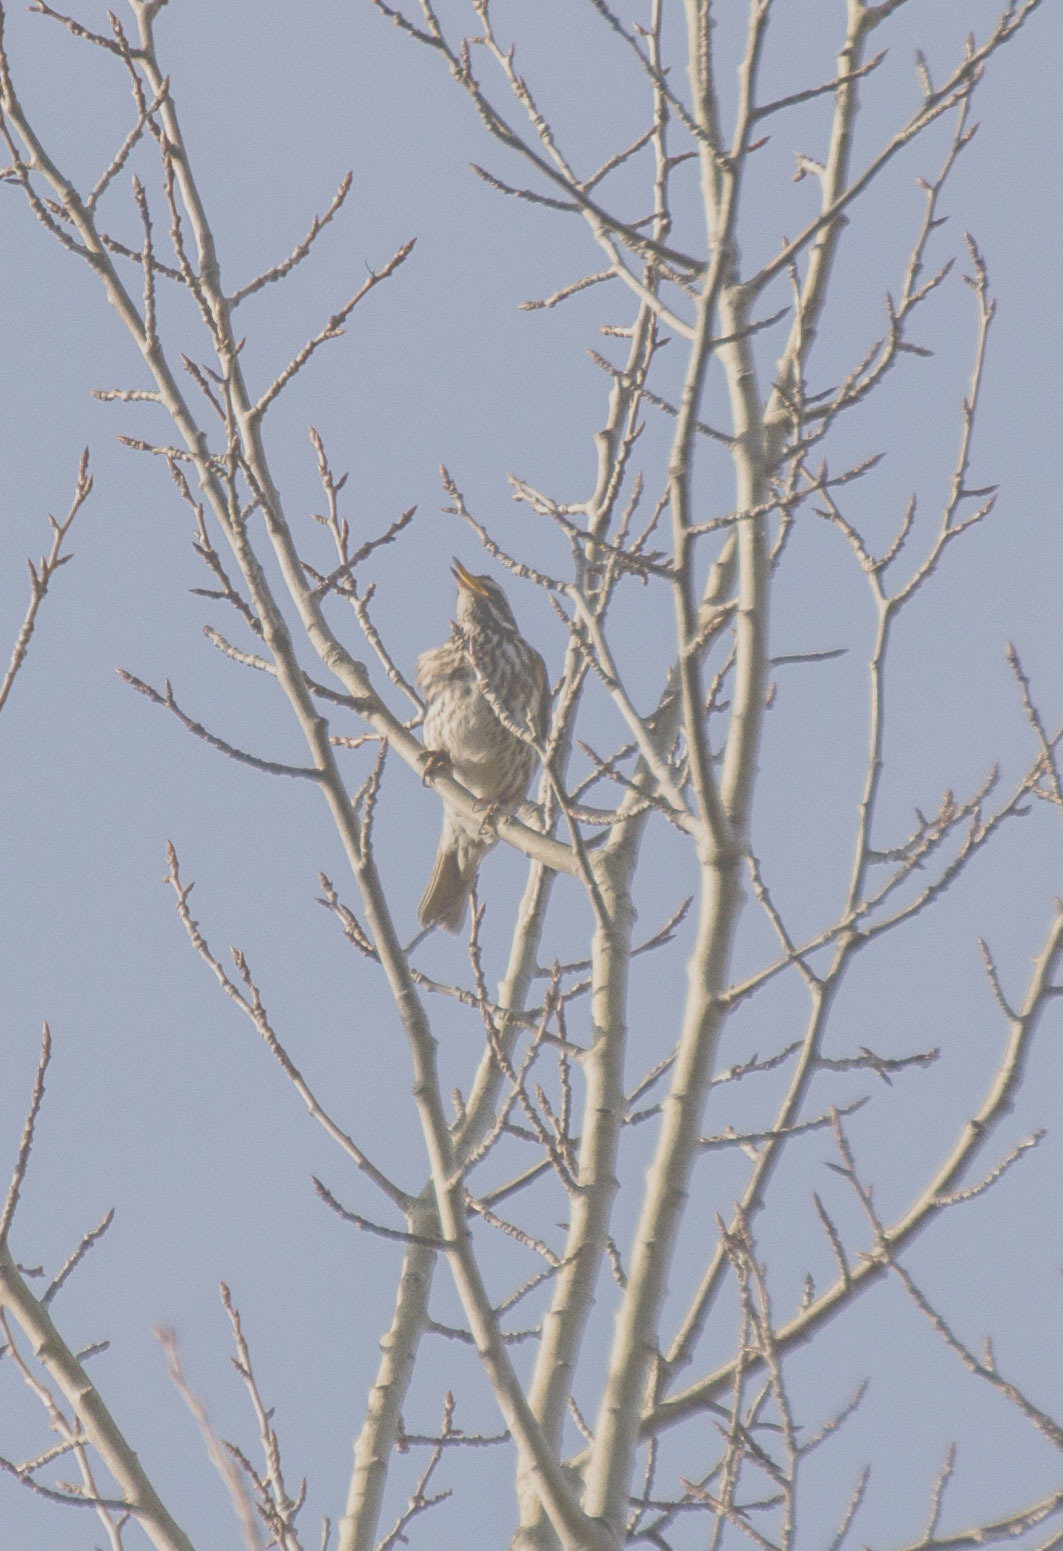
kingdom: Animalia
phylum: Chordata
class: Aves
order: Passeriformes
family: Turdidae
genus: Turdus
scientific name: Turdus iliacus
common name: Redwing
